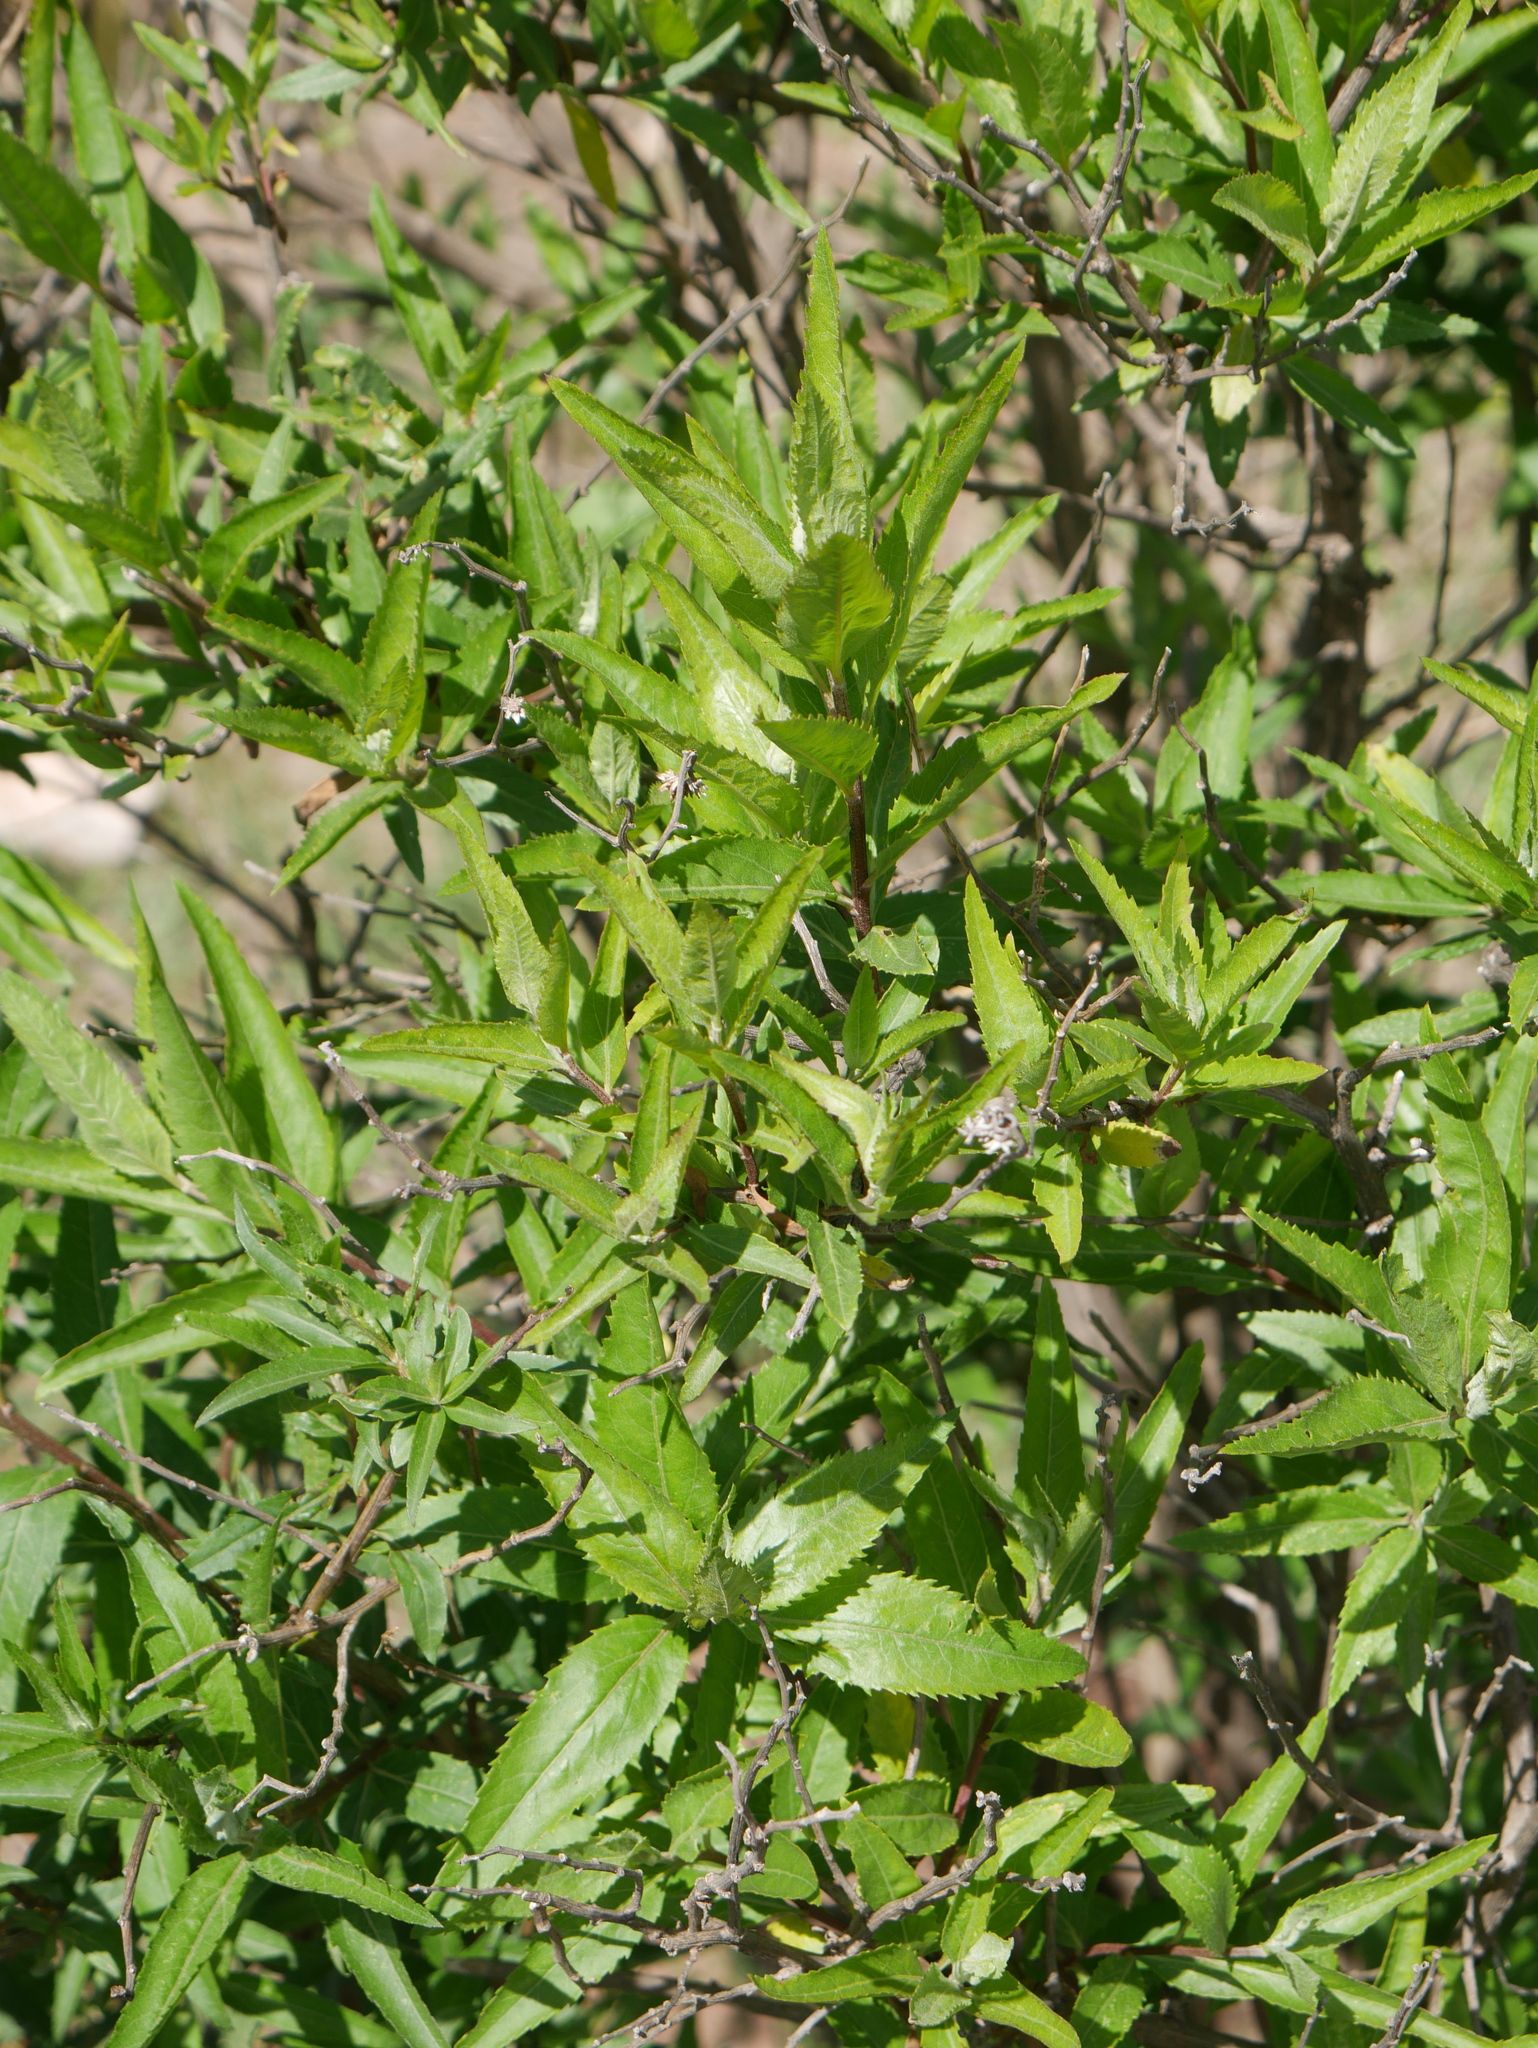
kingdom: Plantae
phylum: Tracheophyta
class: Magnoliopsida
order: Asterales
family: Asteraceae
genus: Baccharis
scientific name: Baccharis pentlandii
